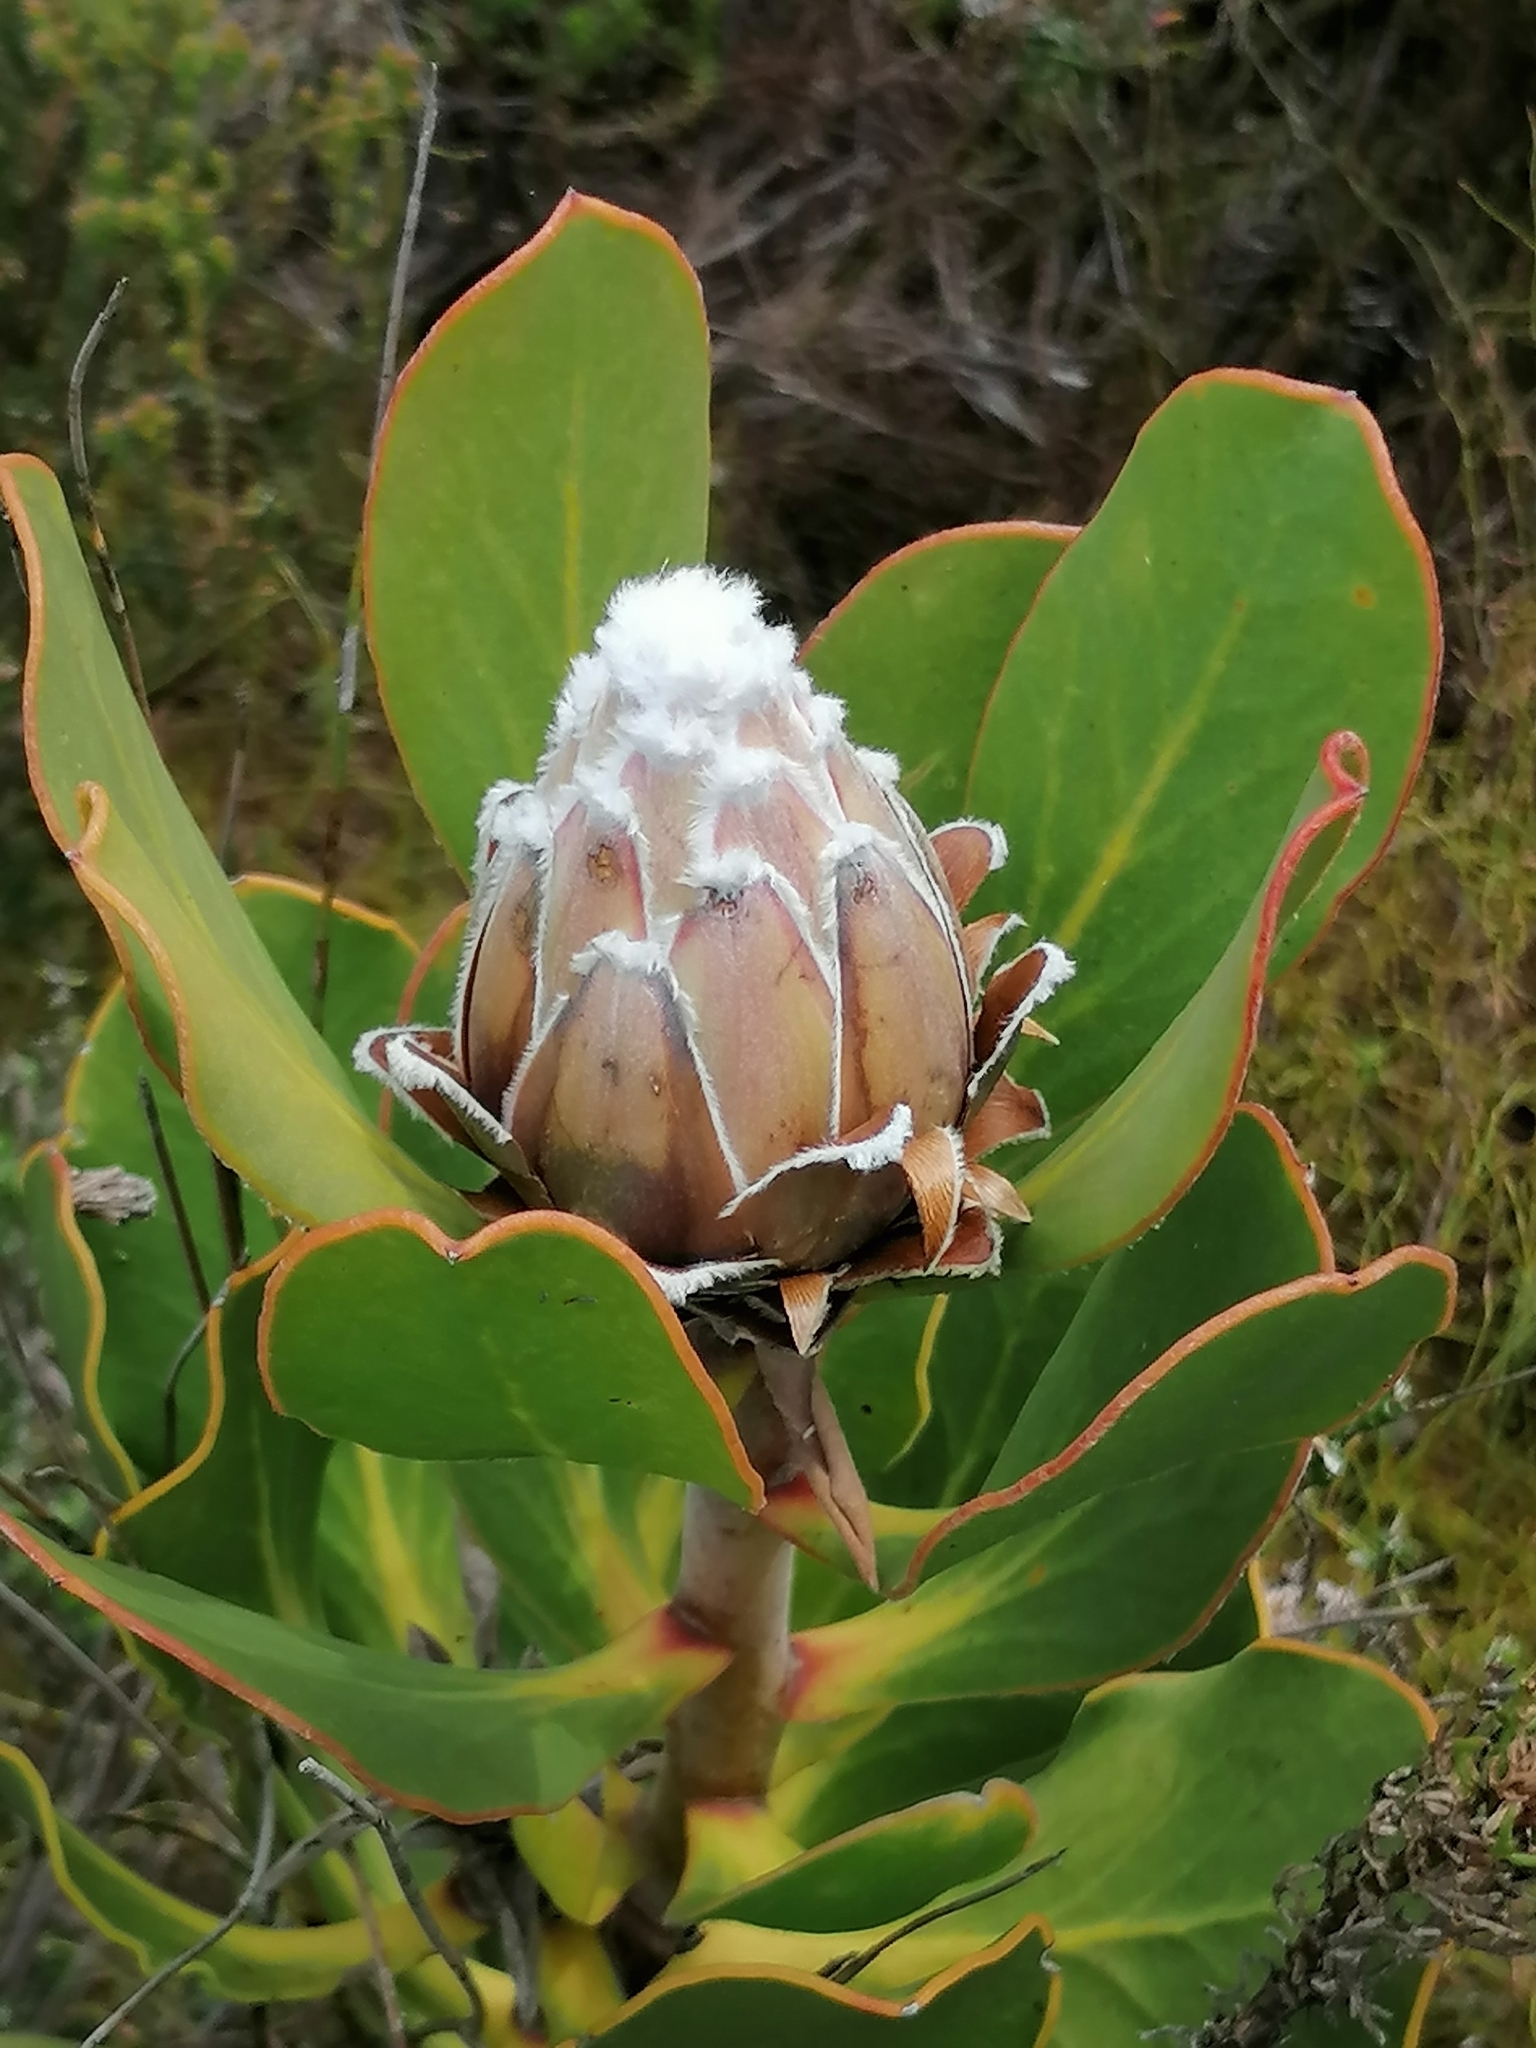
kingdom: Plantae
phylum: Tracheophyta
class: Magnoliopsida
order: Proteales
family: Proteaceae
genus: Protea
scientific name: Protea speciosa
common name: Brown-beard sugarbush
